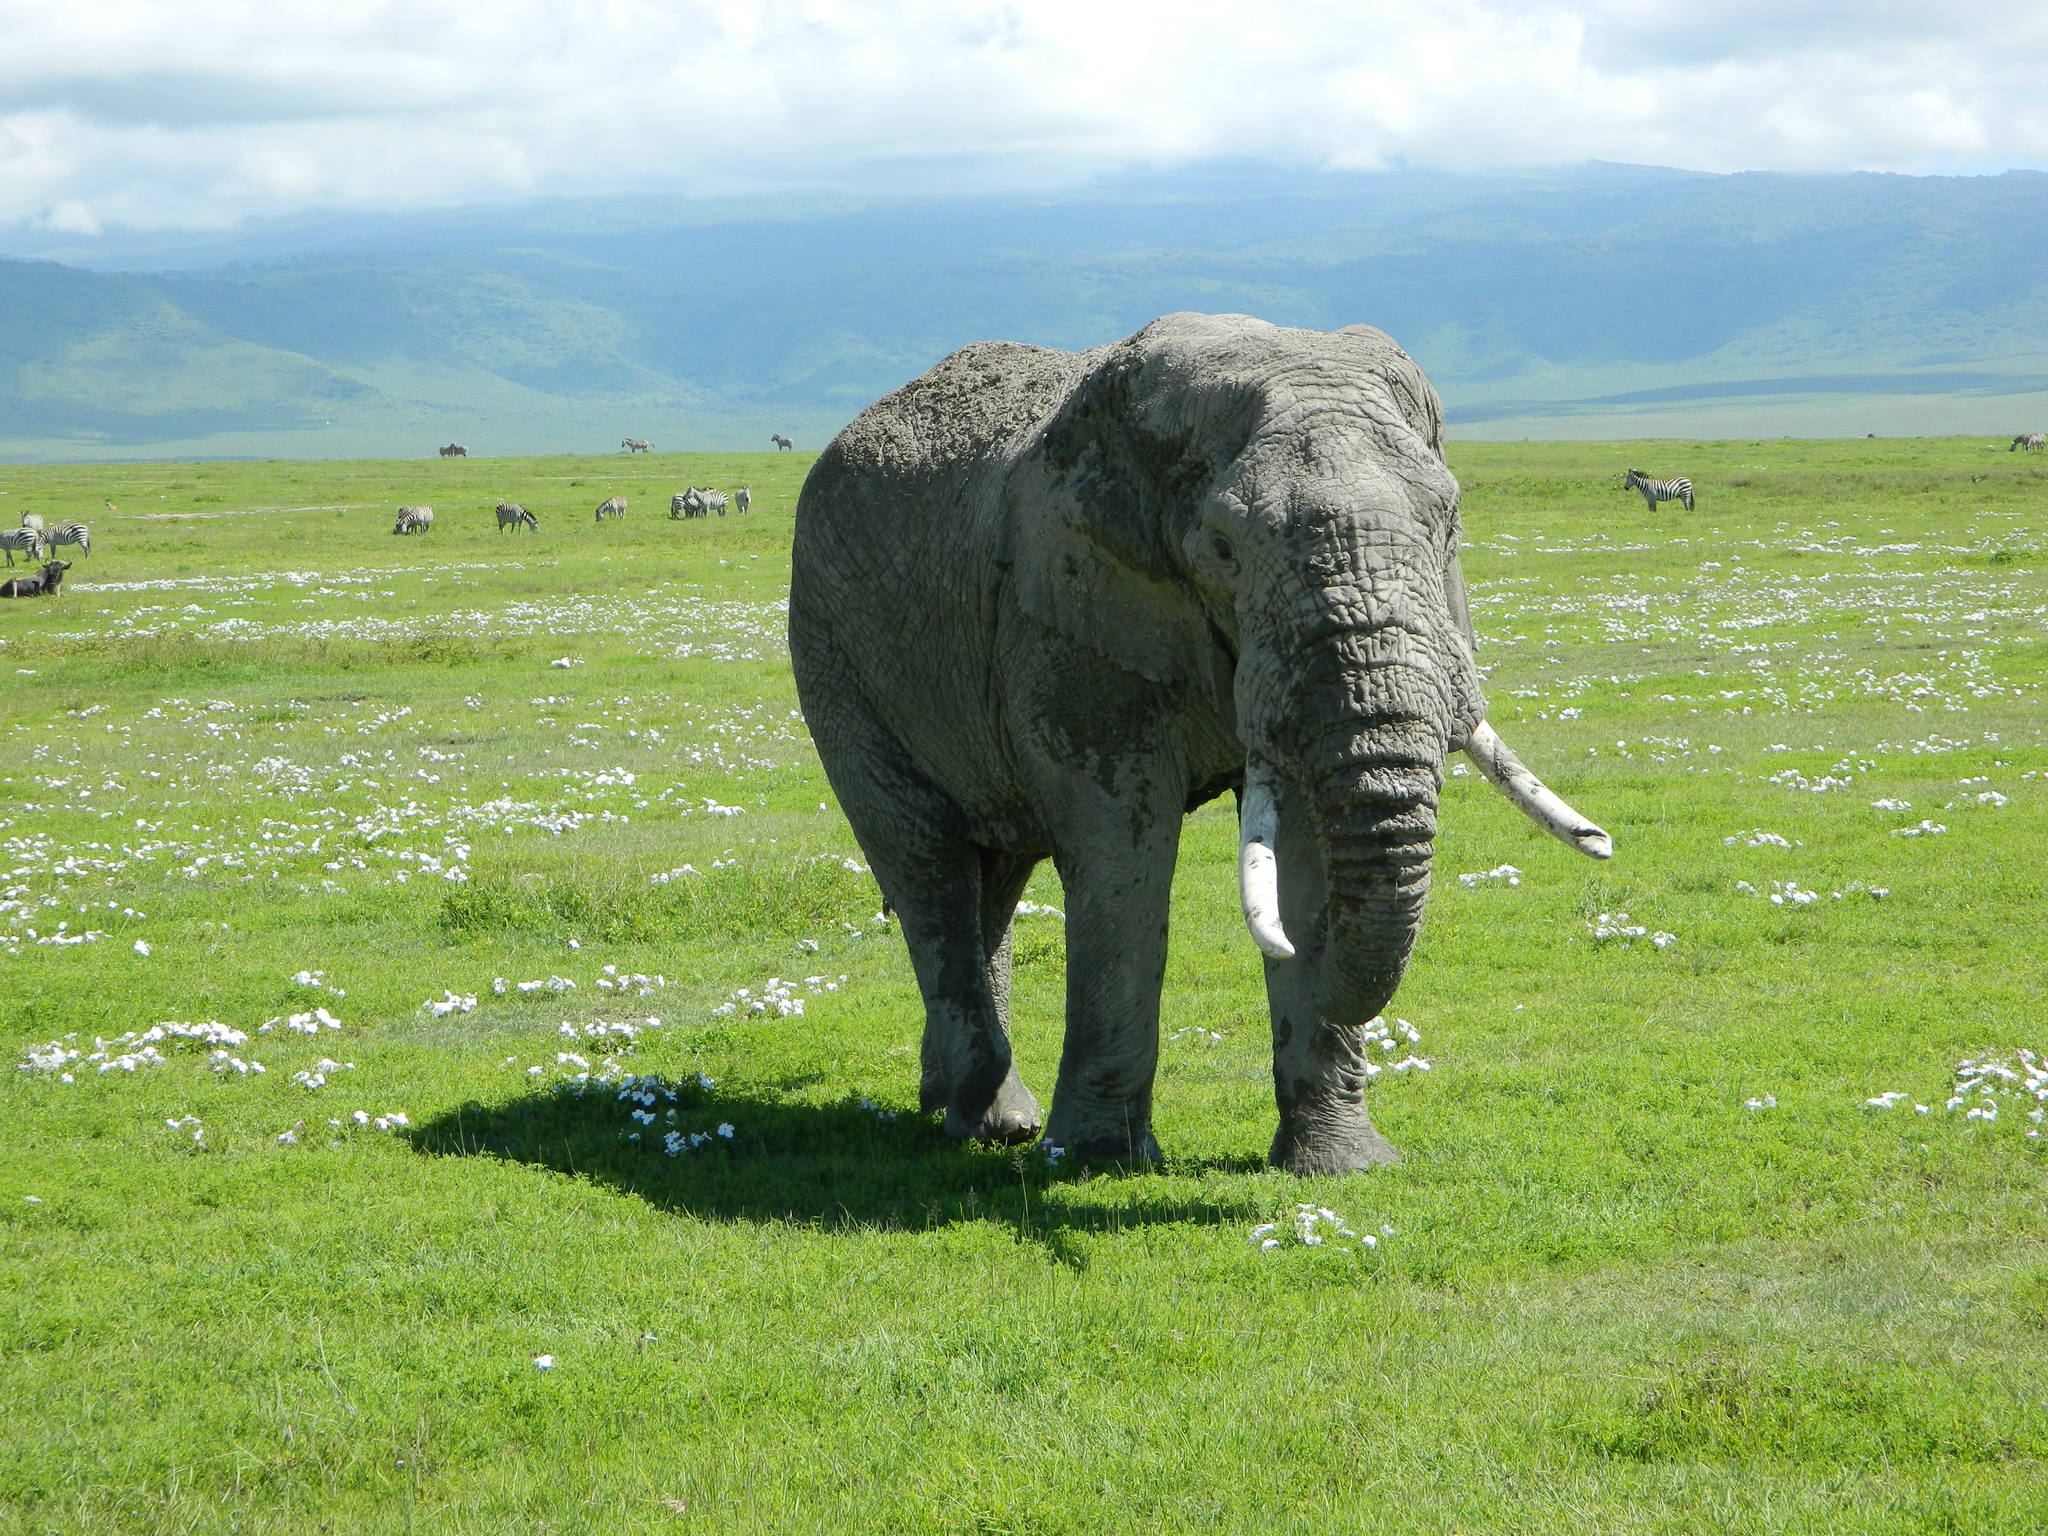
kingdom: Animalia
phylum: Chordata
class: Mammalia
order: Proboscidea
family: Elephantidae
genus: Loxodonta
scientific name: Loxodonta africana
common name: African elephant
